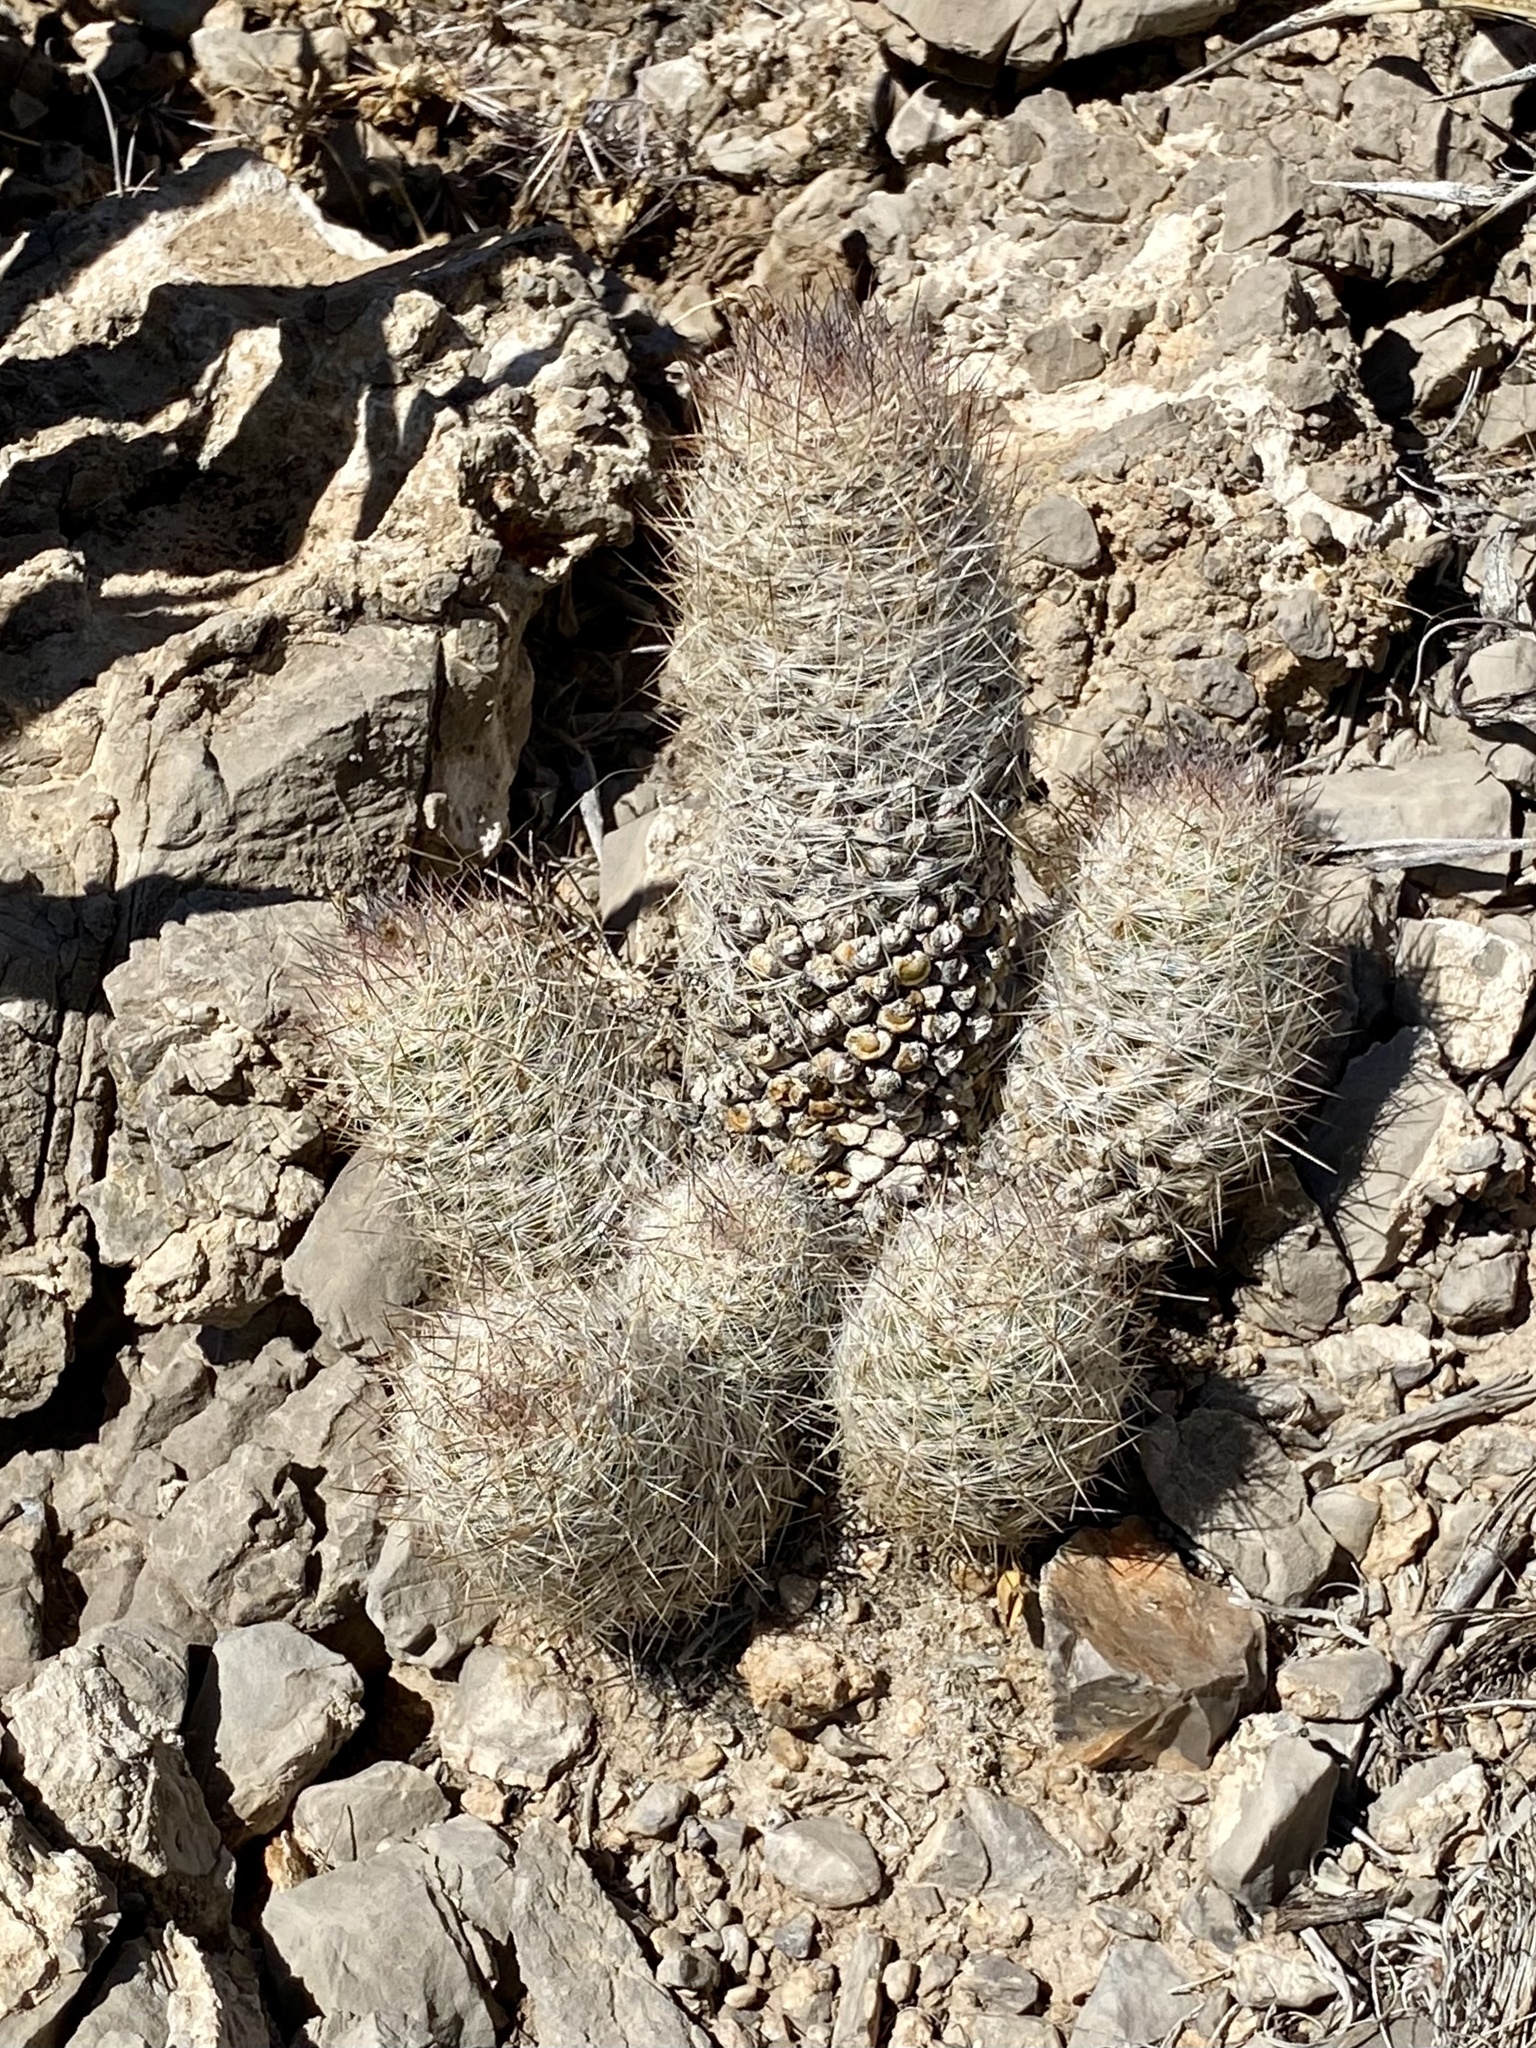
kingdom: Plantae
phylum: Tracheophyta
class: Magnoliopsida
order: Caryophyllales
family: Cactaceae
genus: Pelecyphora
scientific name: Pelecyphora tuberculosa
